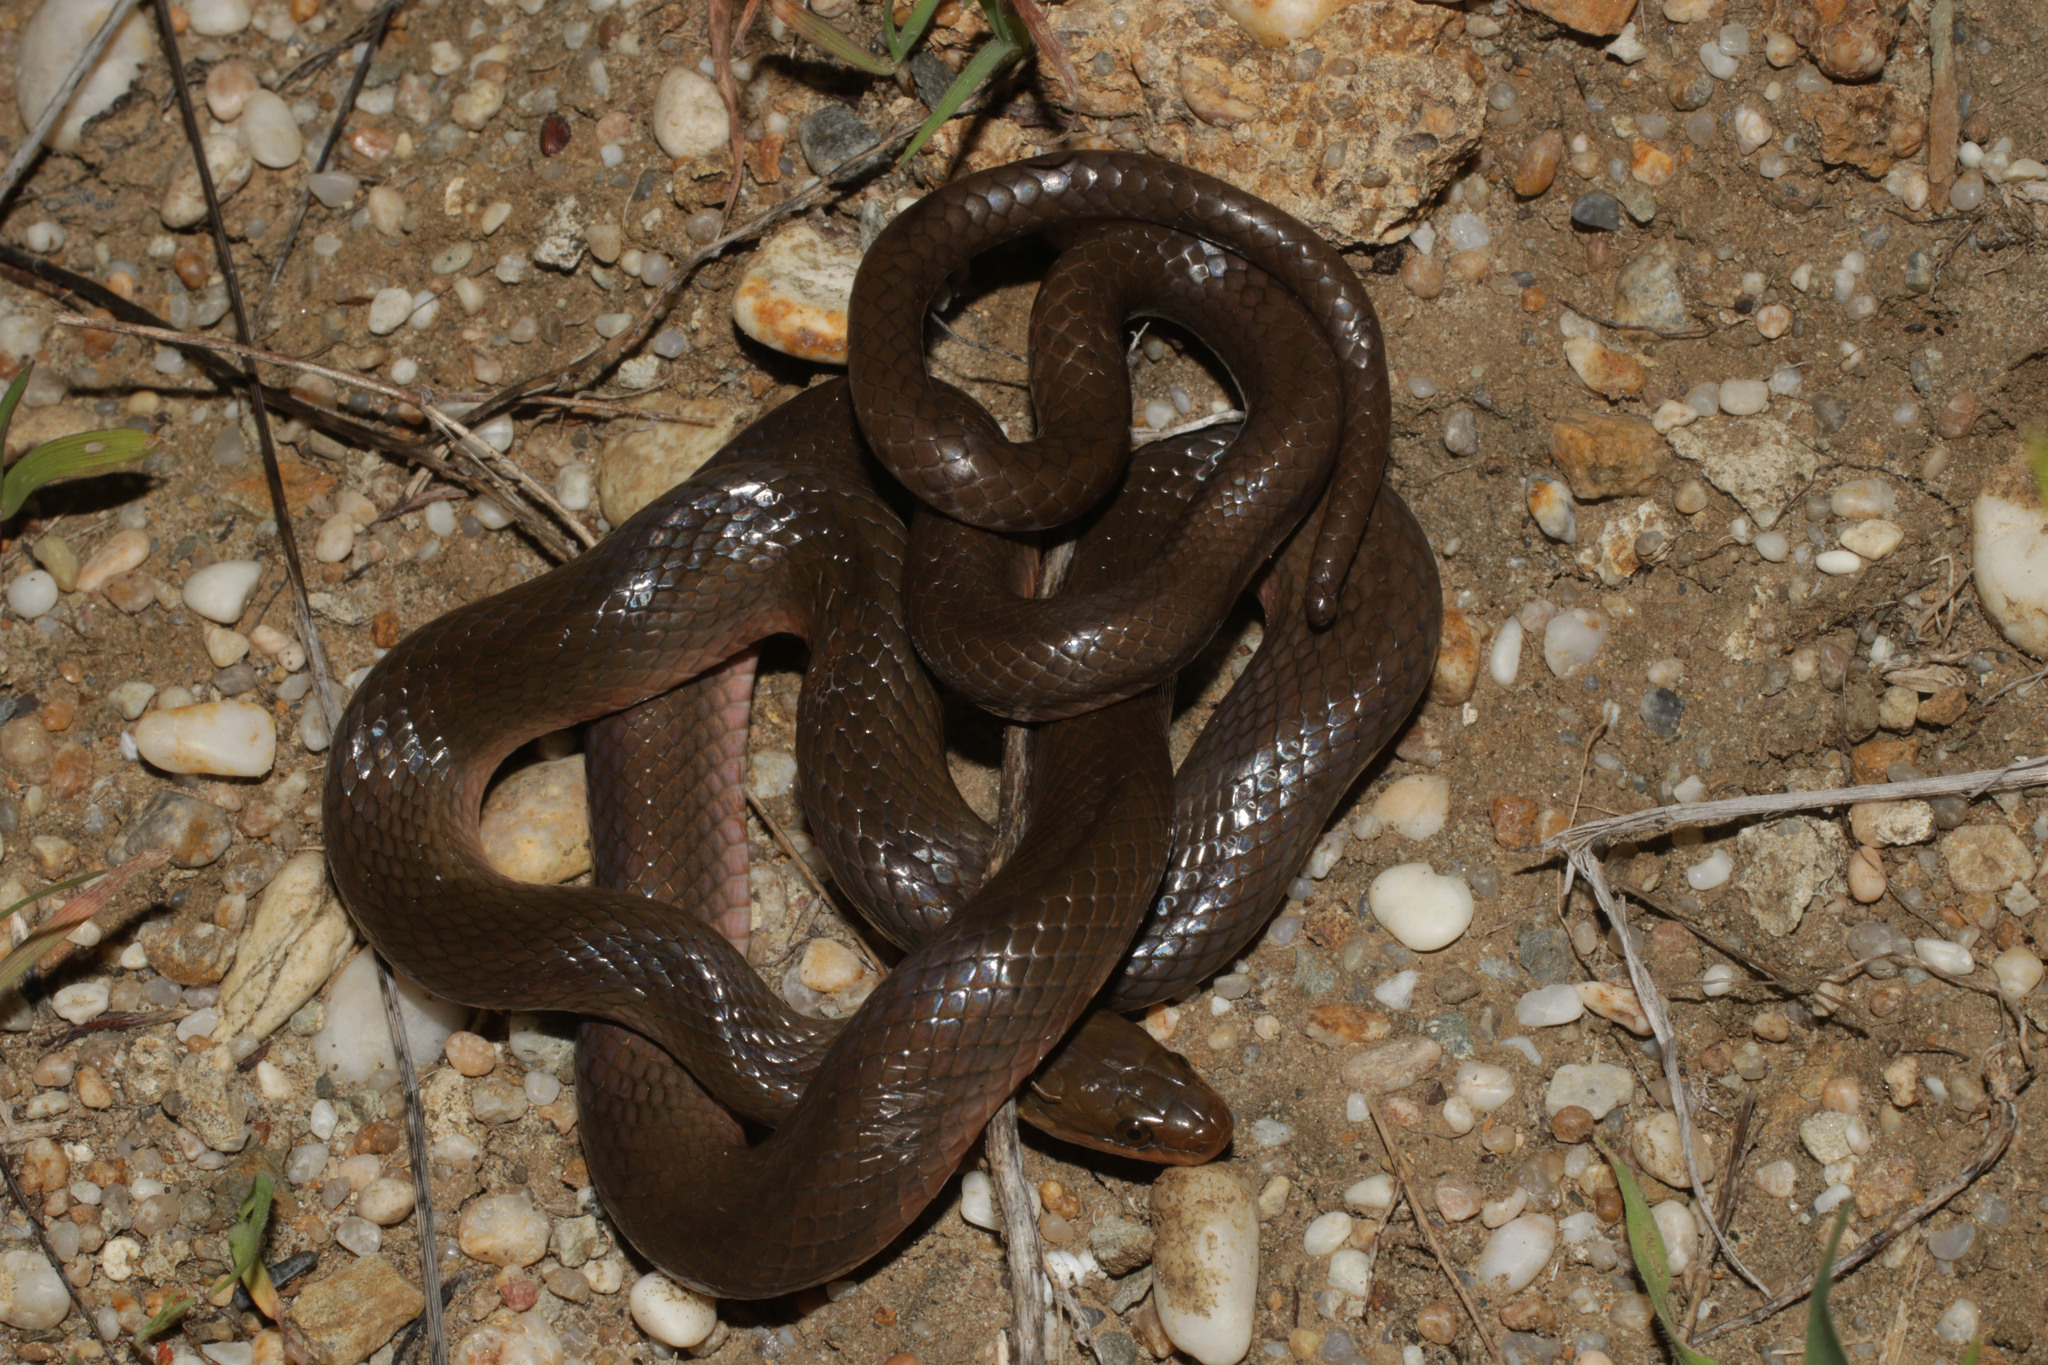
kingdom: Animalia
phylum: Chordata
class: Squamata
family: Lamprophiidae
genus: Lycodonomorphus
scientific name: Lycodonomorphus rufulus
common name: Brown water snake
